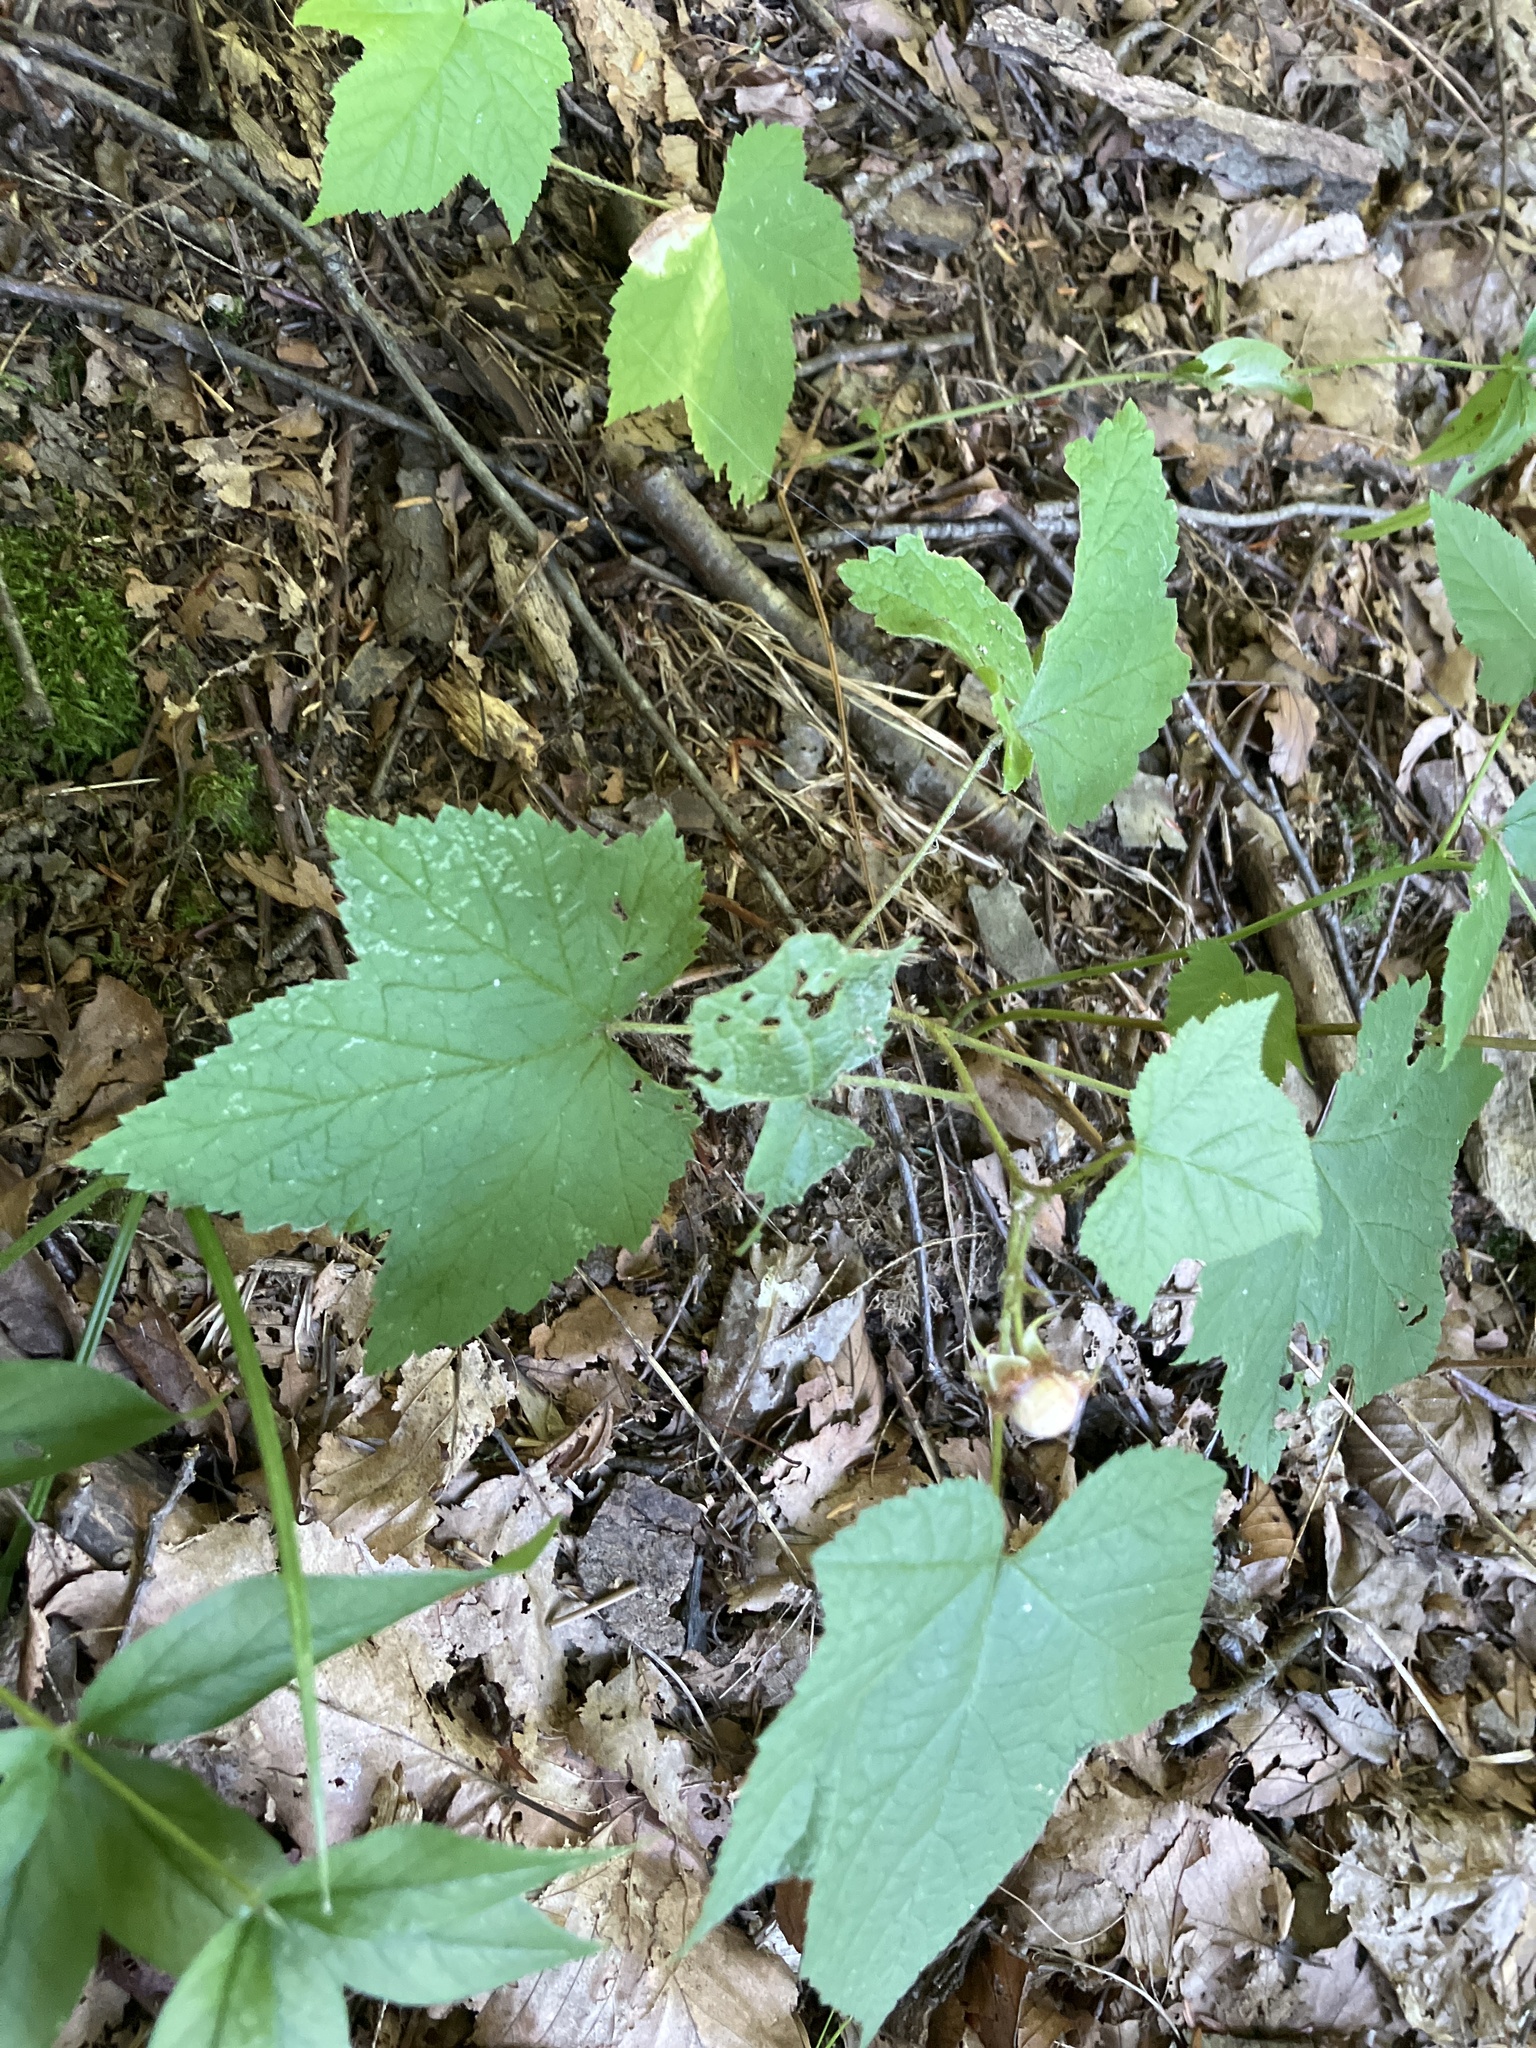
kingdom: Plantae
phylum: Tracheophyta
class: Magnoliopsida
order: Rosales
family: Rosaceae
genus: Rubus
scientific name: Rubus odoratus
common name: Purple-flowered raspberry
